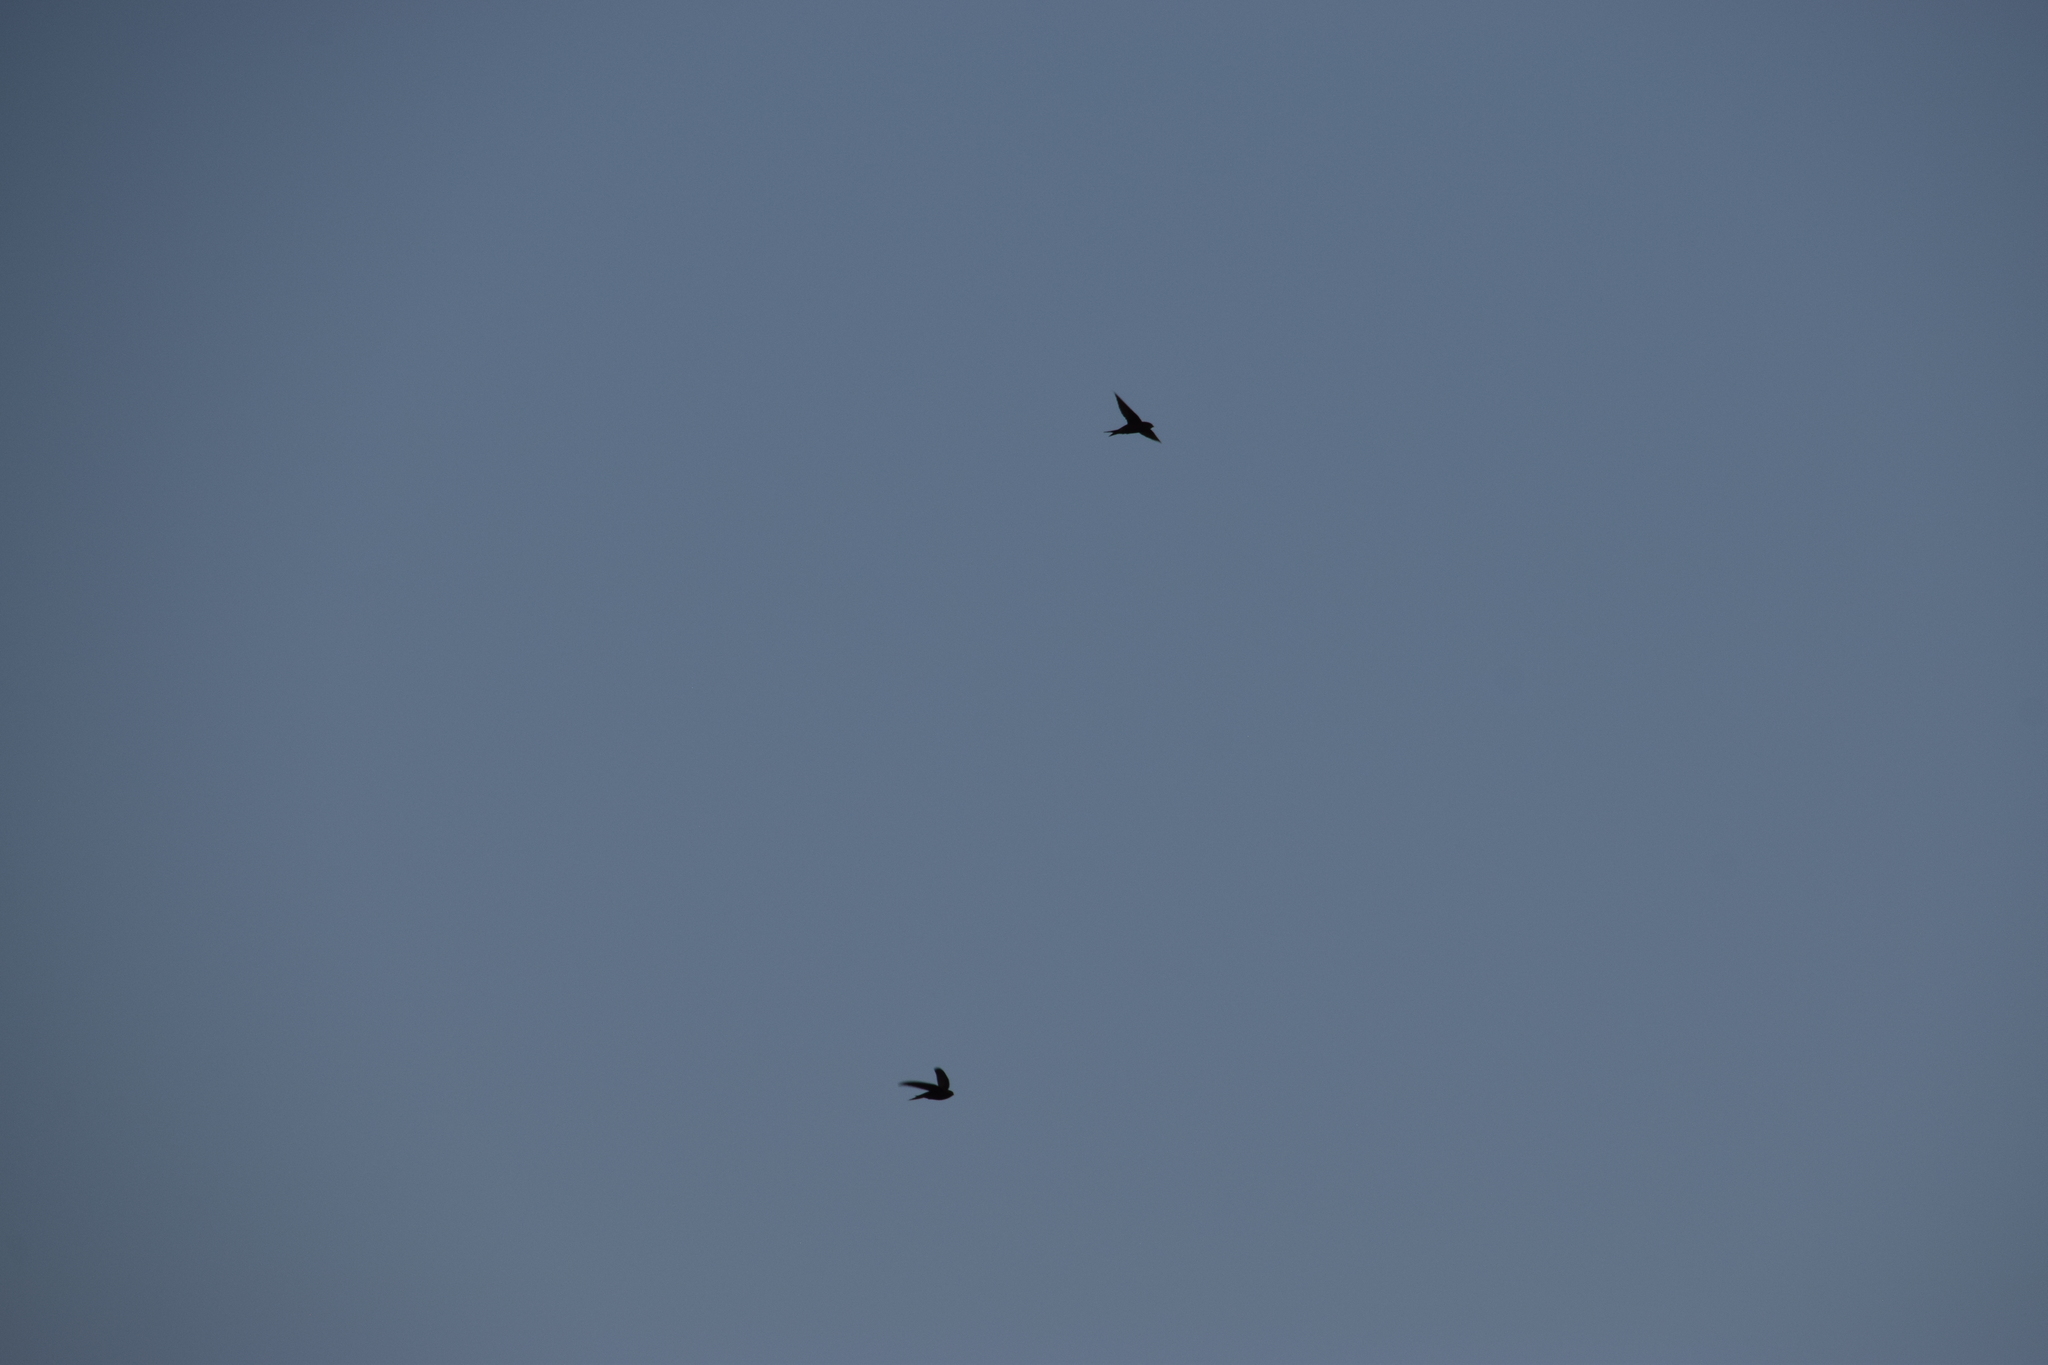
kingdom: Animalia
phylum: Chordata
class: Aves
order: Apodiformes
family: Apodidae
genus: Apus
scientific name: Apus apus
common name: Common swift
